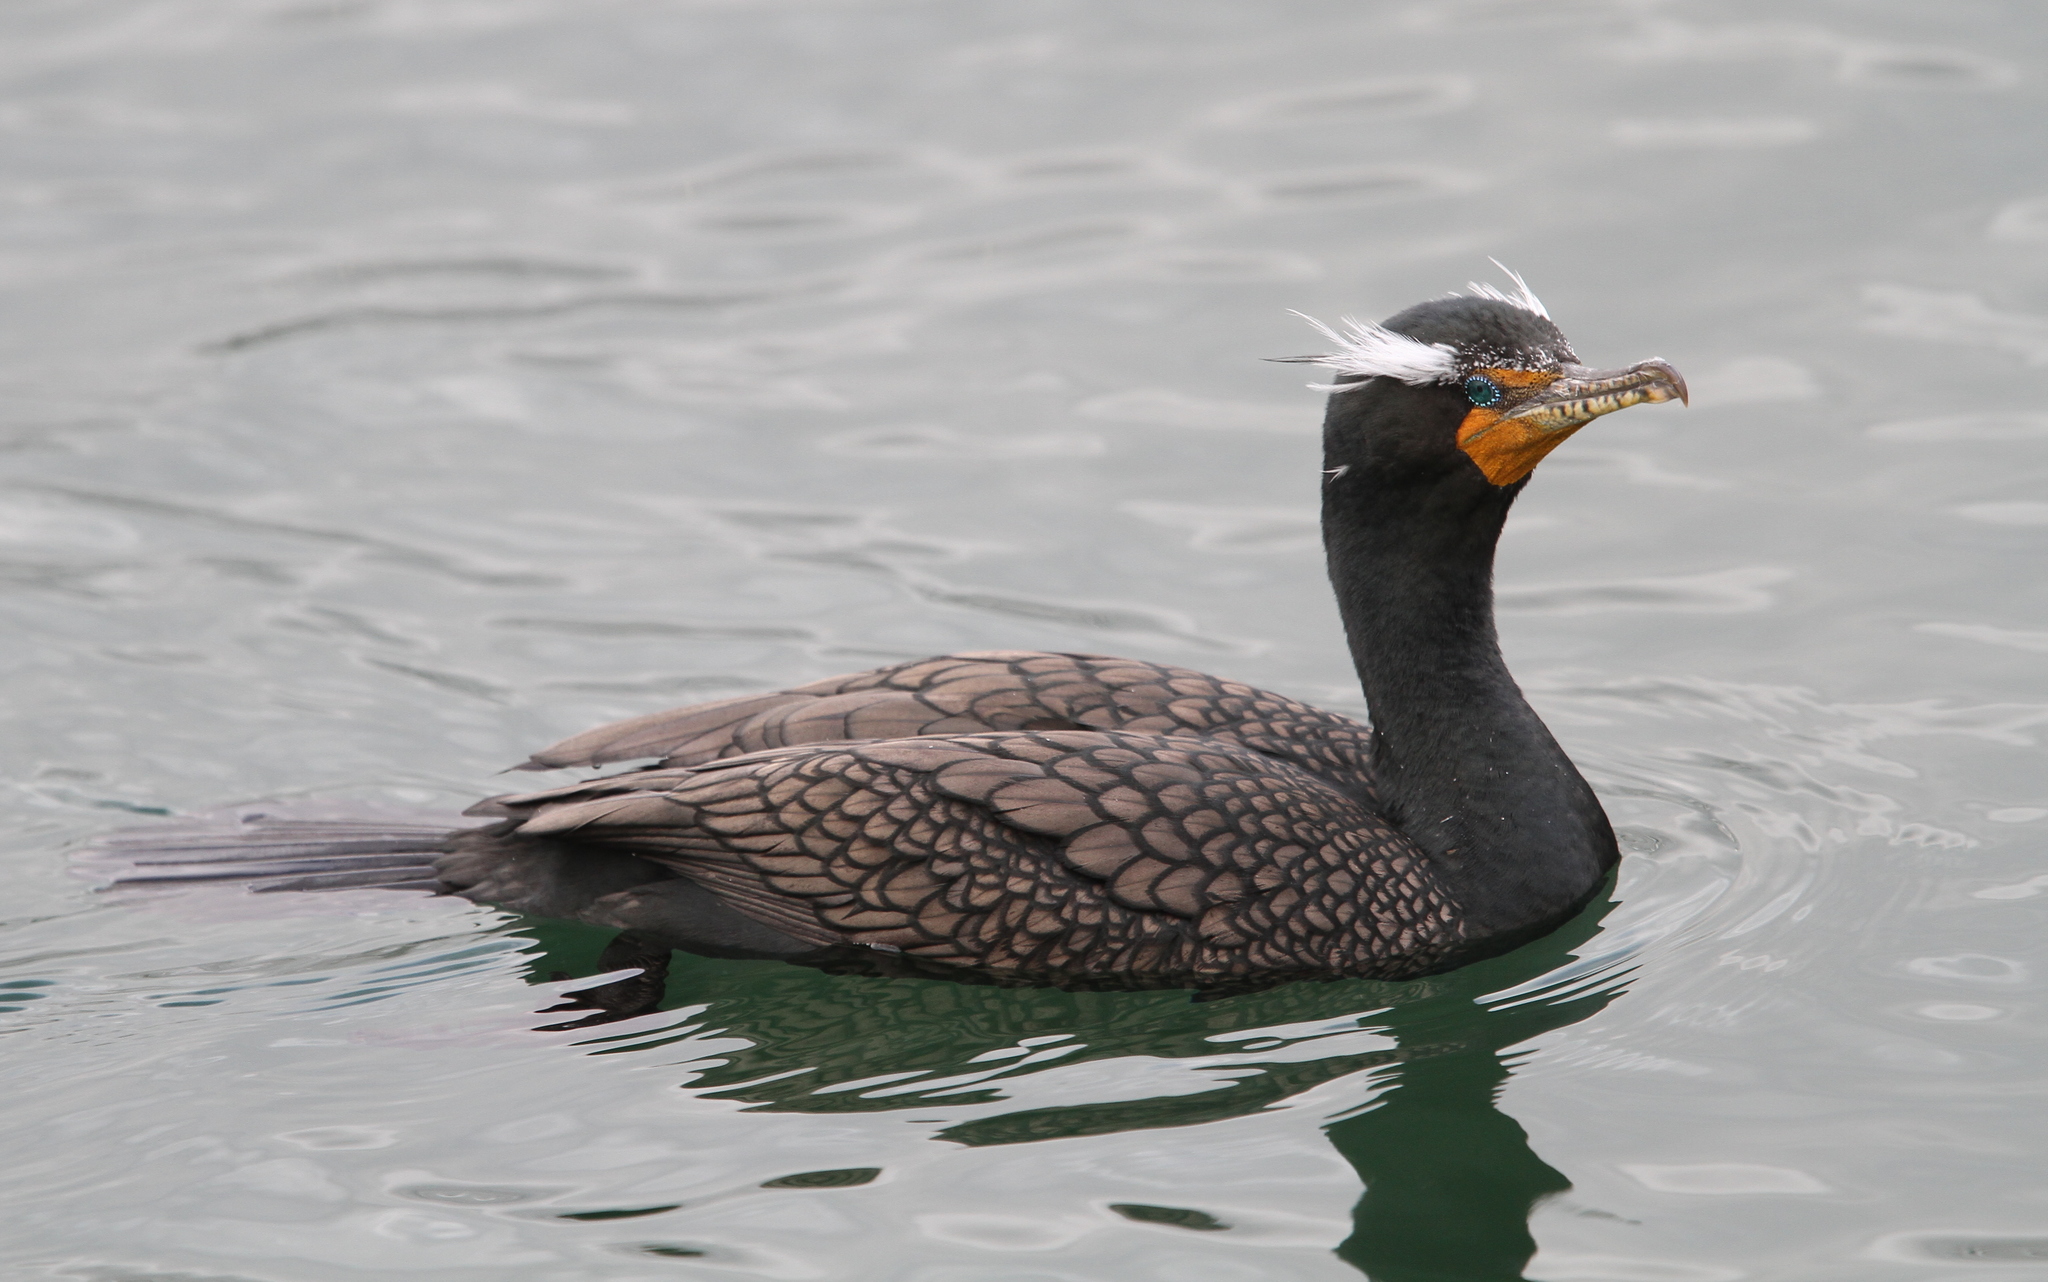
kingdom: Animalia
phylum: Chordata
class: Aves
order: Suliformes
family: Phalacrocoracidae
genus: Phalacrocorax
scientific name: Phalacrocorax auritus
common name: Double-crested cormorant
